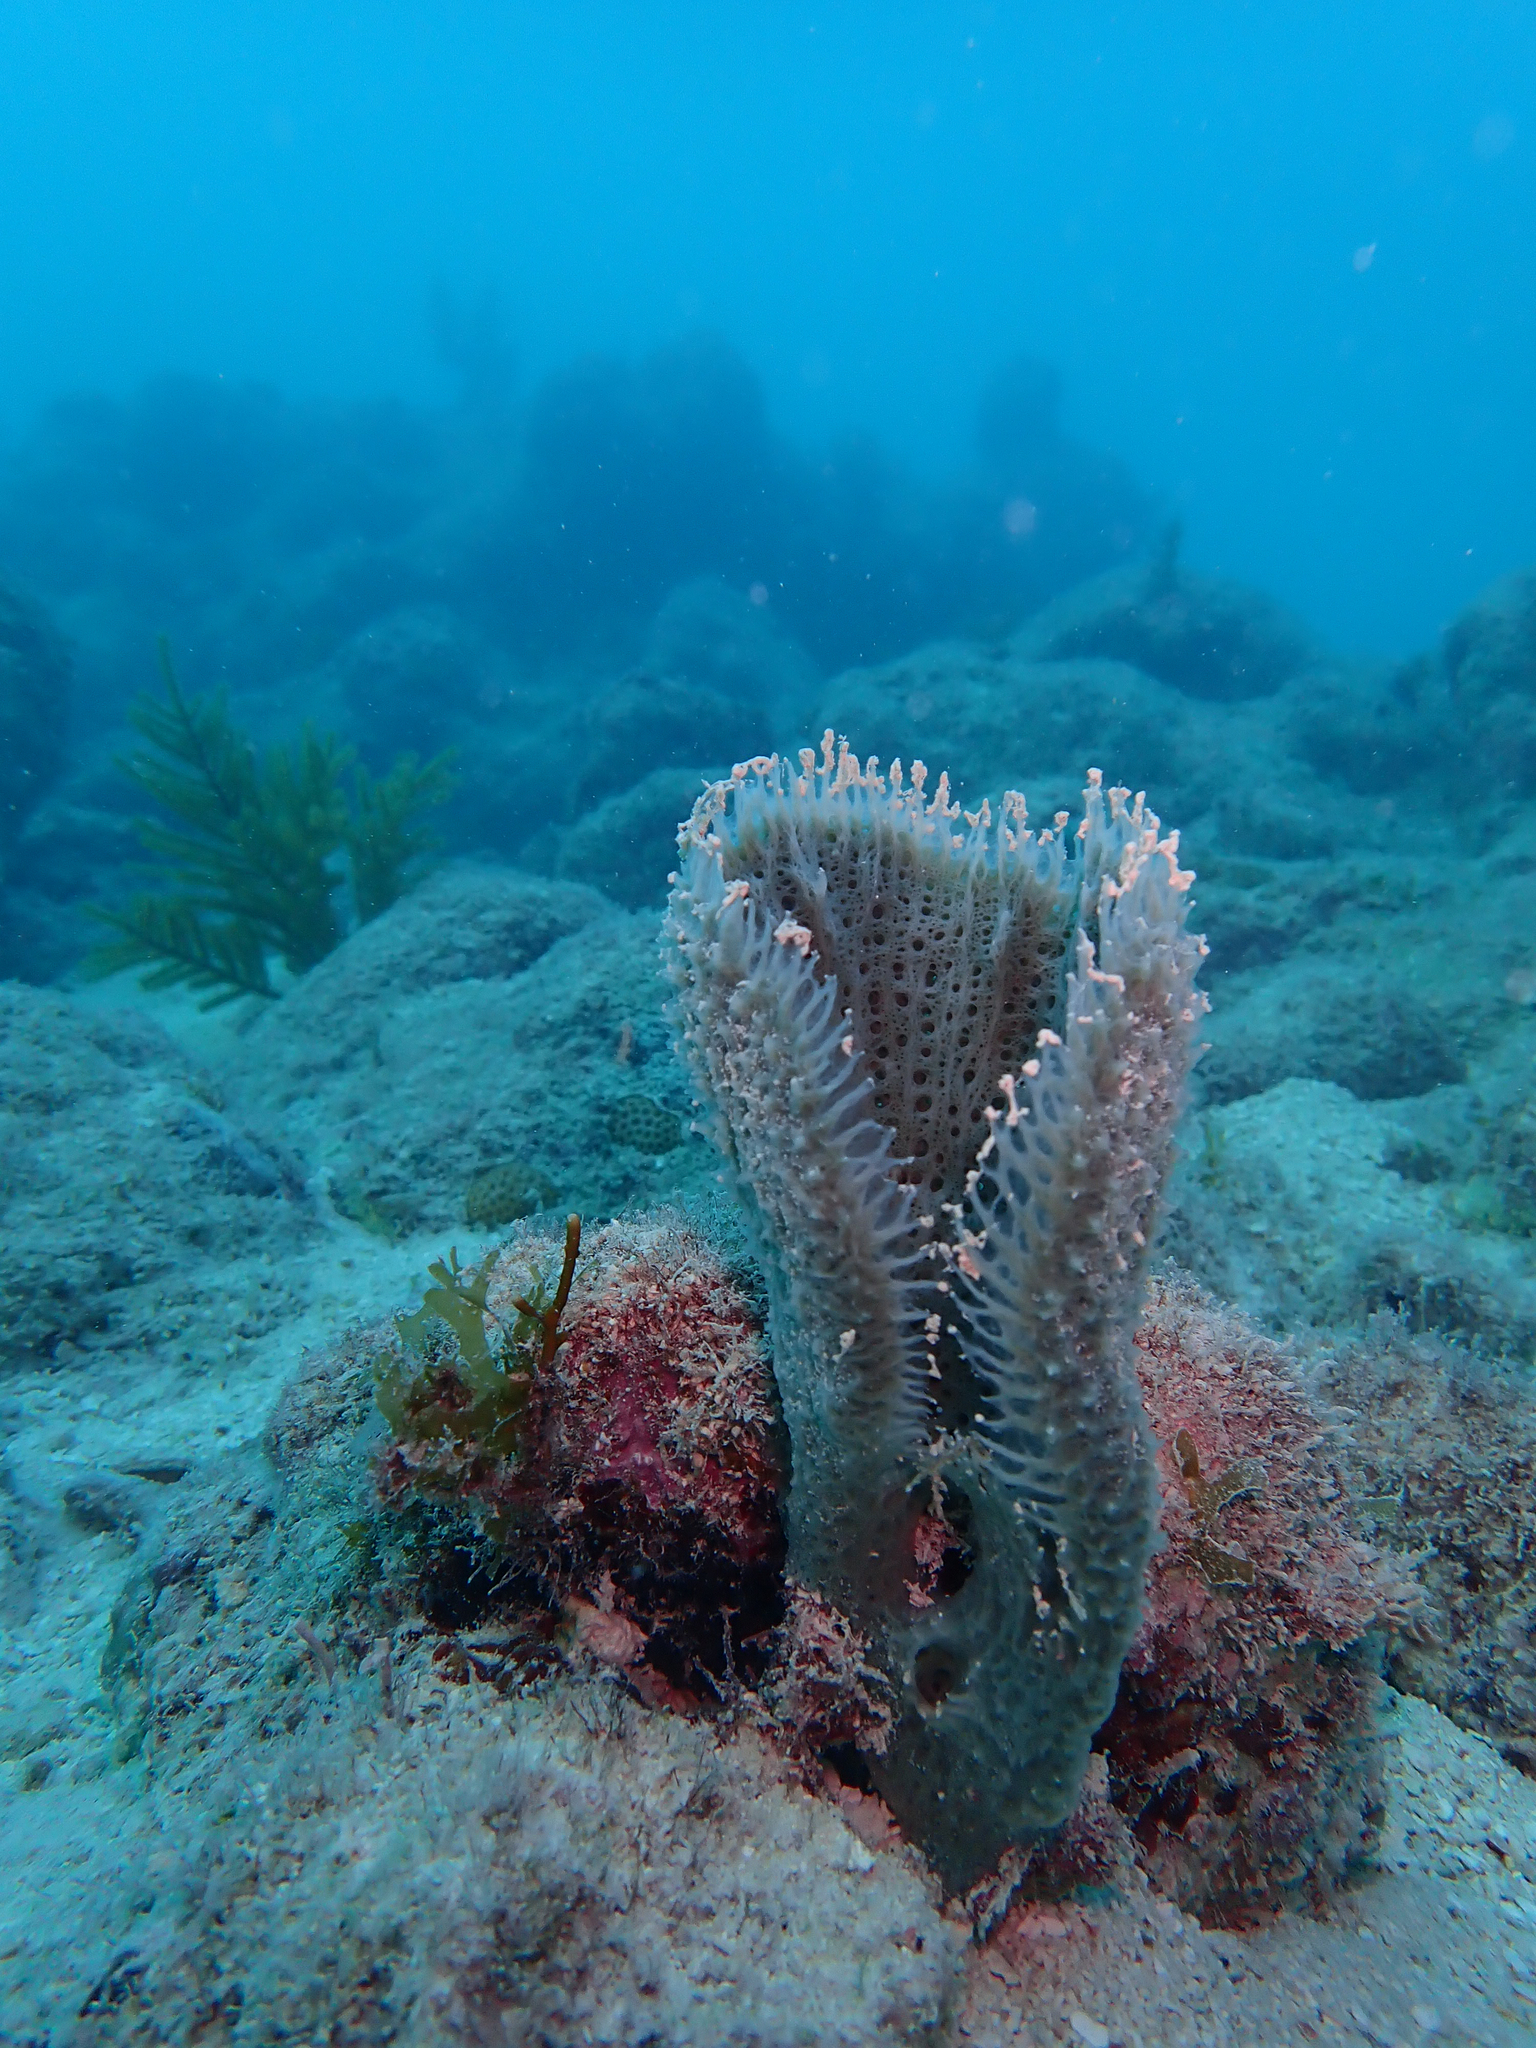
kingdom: Animalia
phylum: Porifera
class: Demospongiae
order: Haplosclerida
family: Niphatidae
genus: Niphates
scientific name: Niphates digitalis
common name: Pink vase sponge
